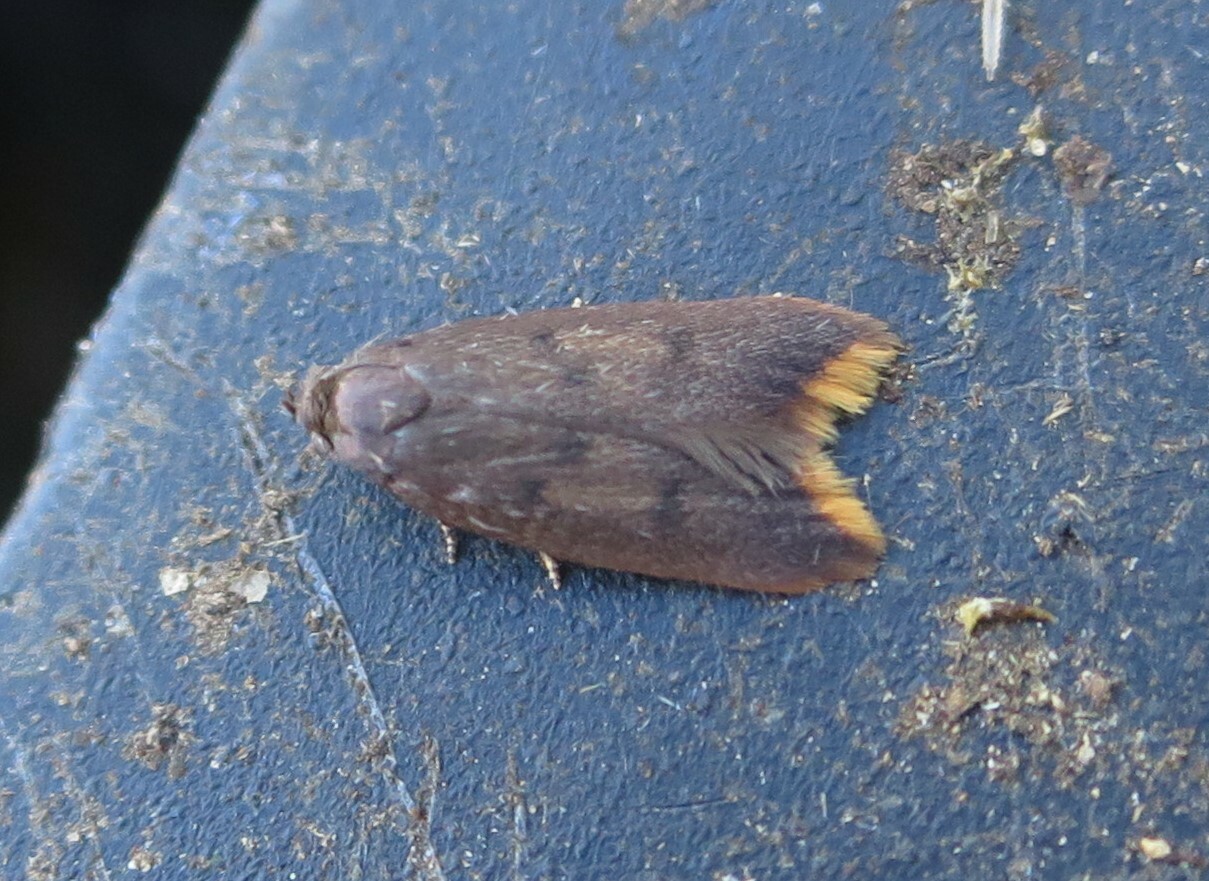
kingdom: Animalia
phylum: Arthropoda
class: Insecta
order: Lepidoptera
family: Oecophoridae
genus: Tachystola
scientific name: Tachystola acroxantha
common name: Ruddy streak
